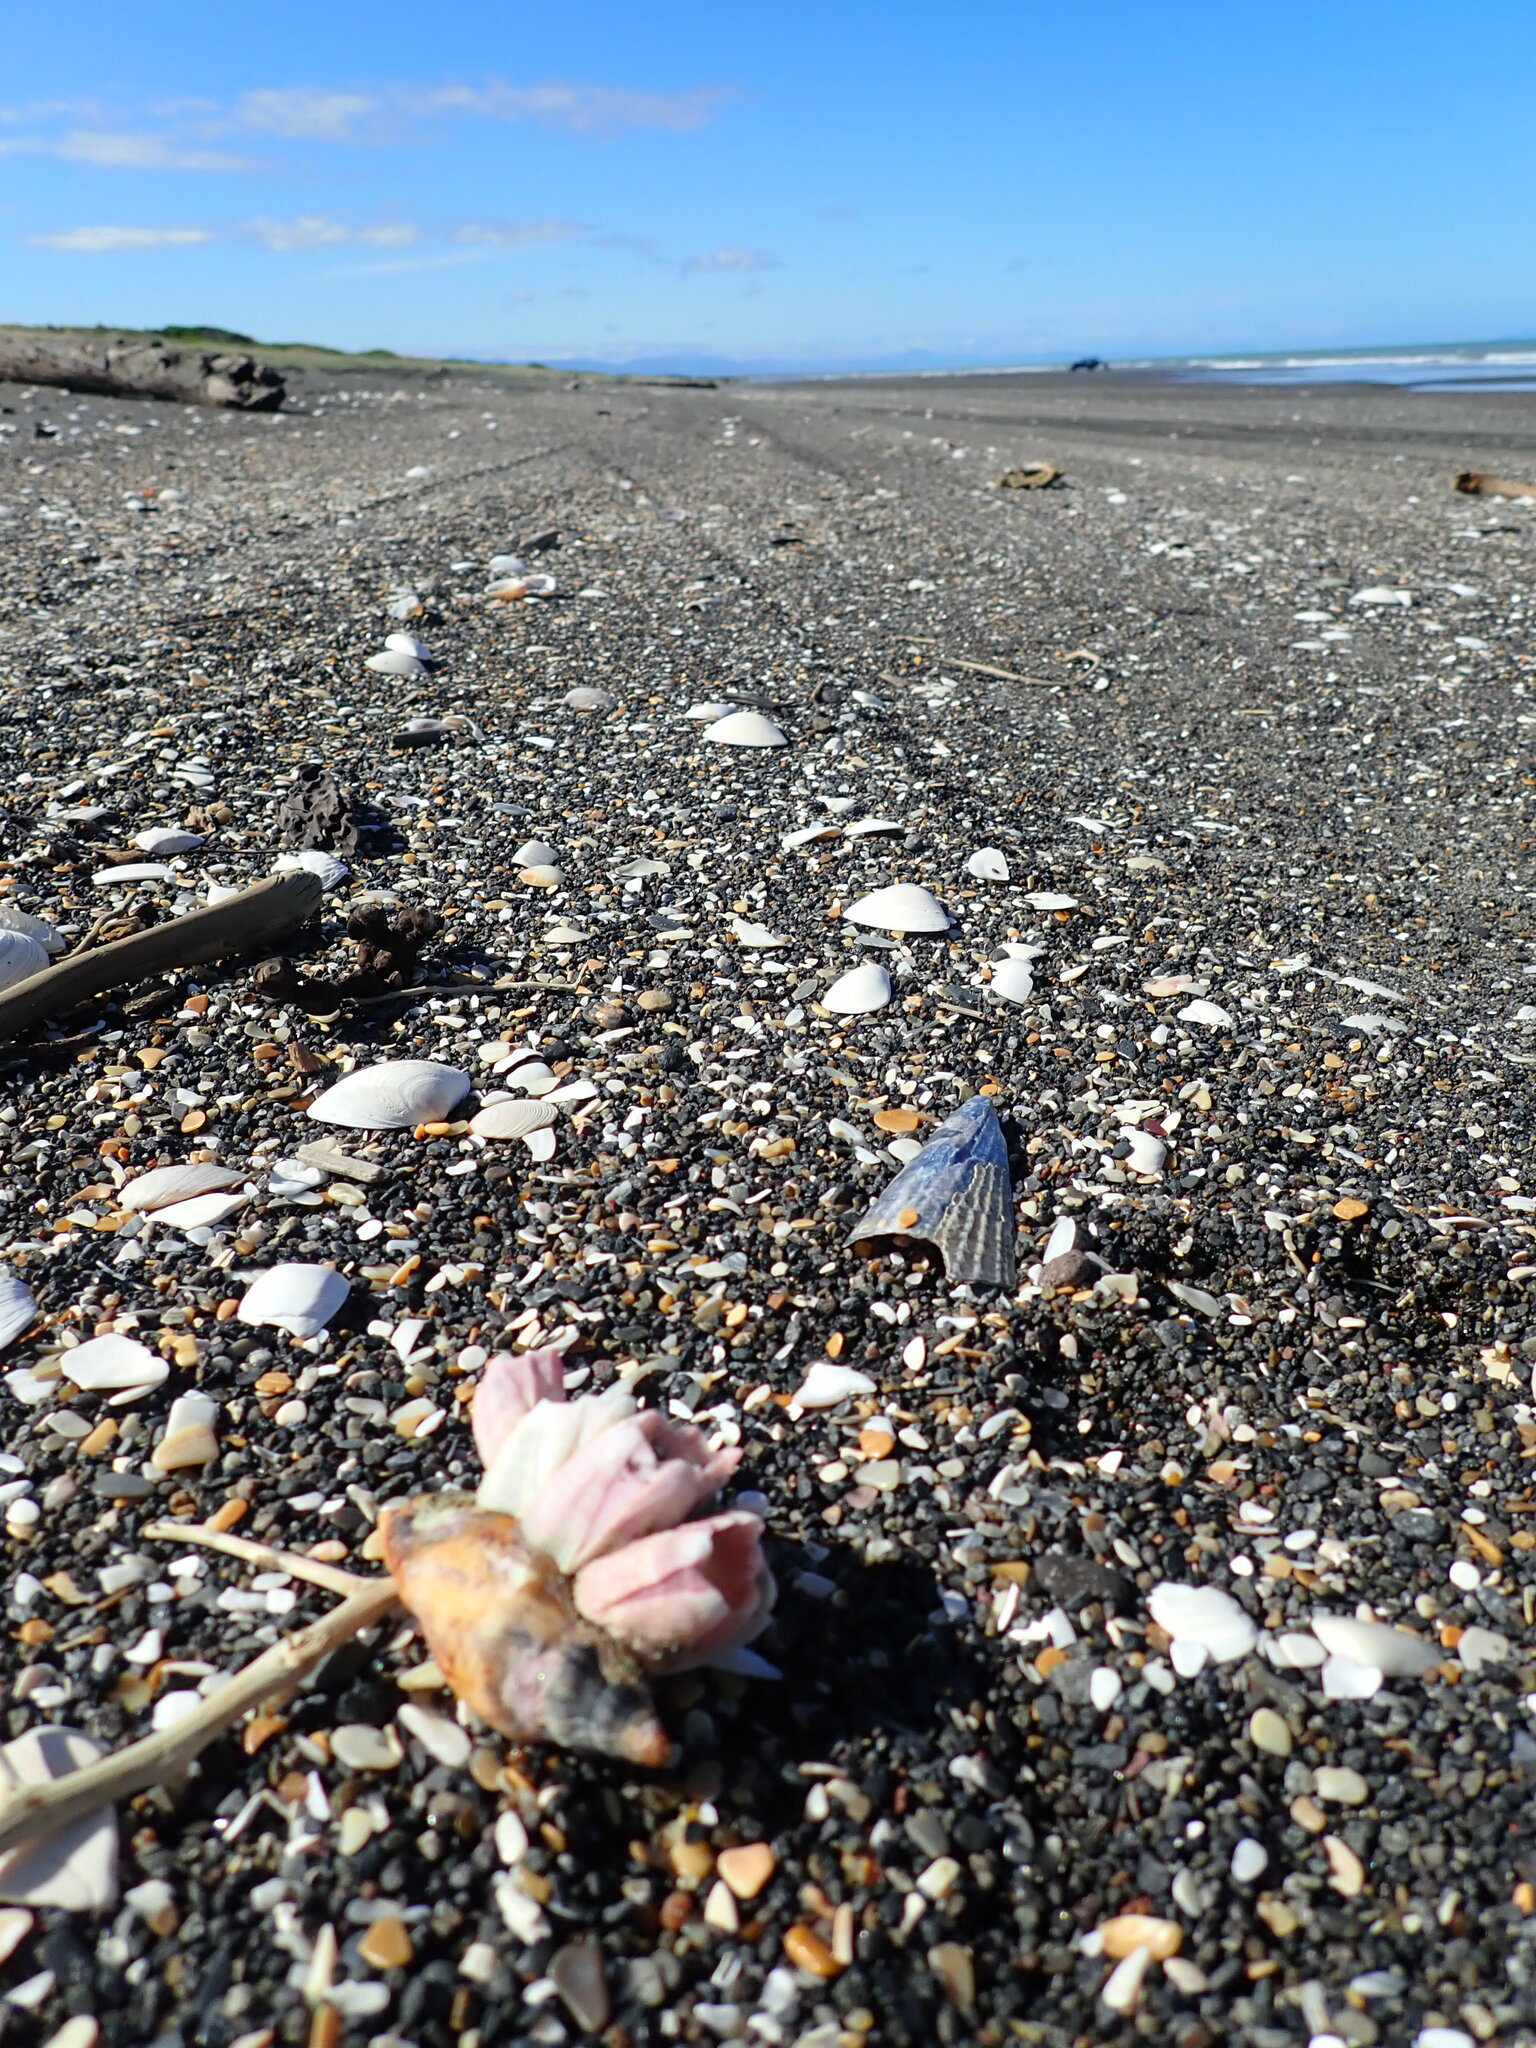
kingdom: Animalia
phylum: Mollusca
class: Gastropoda
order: Neogastropoda
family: Volutidae
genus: Alcithoe
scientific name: Alcithoe fusus
